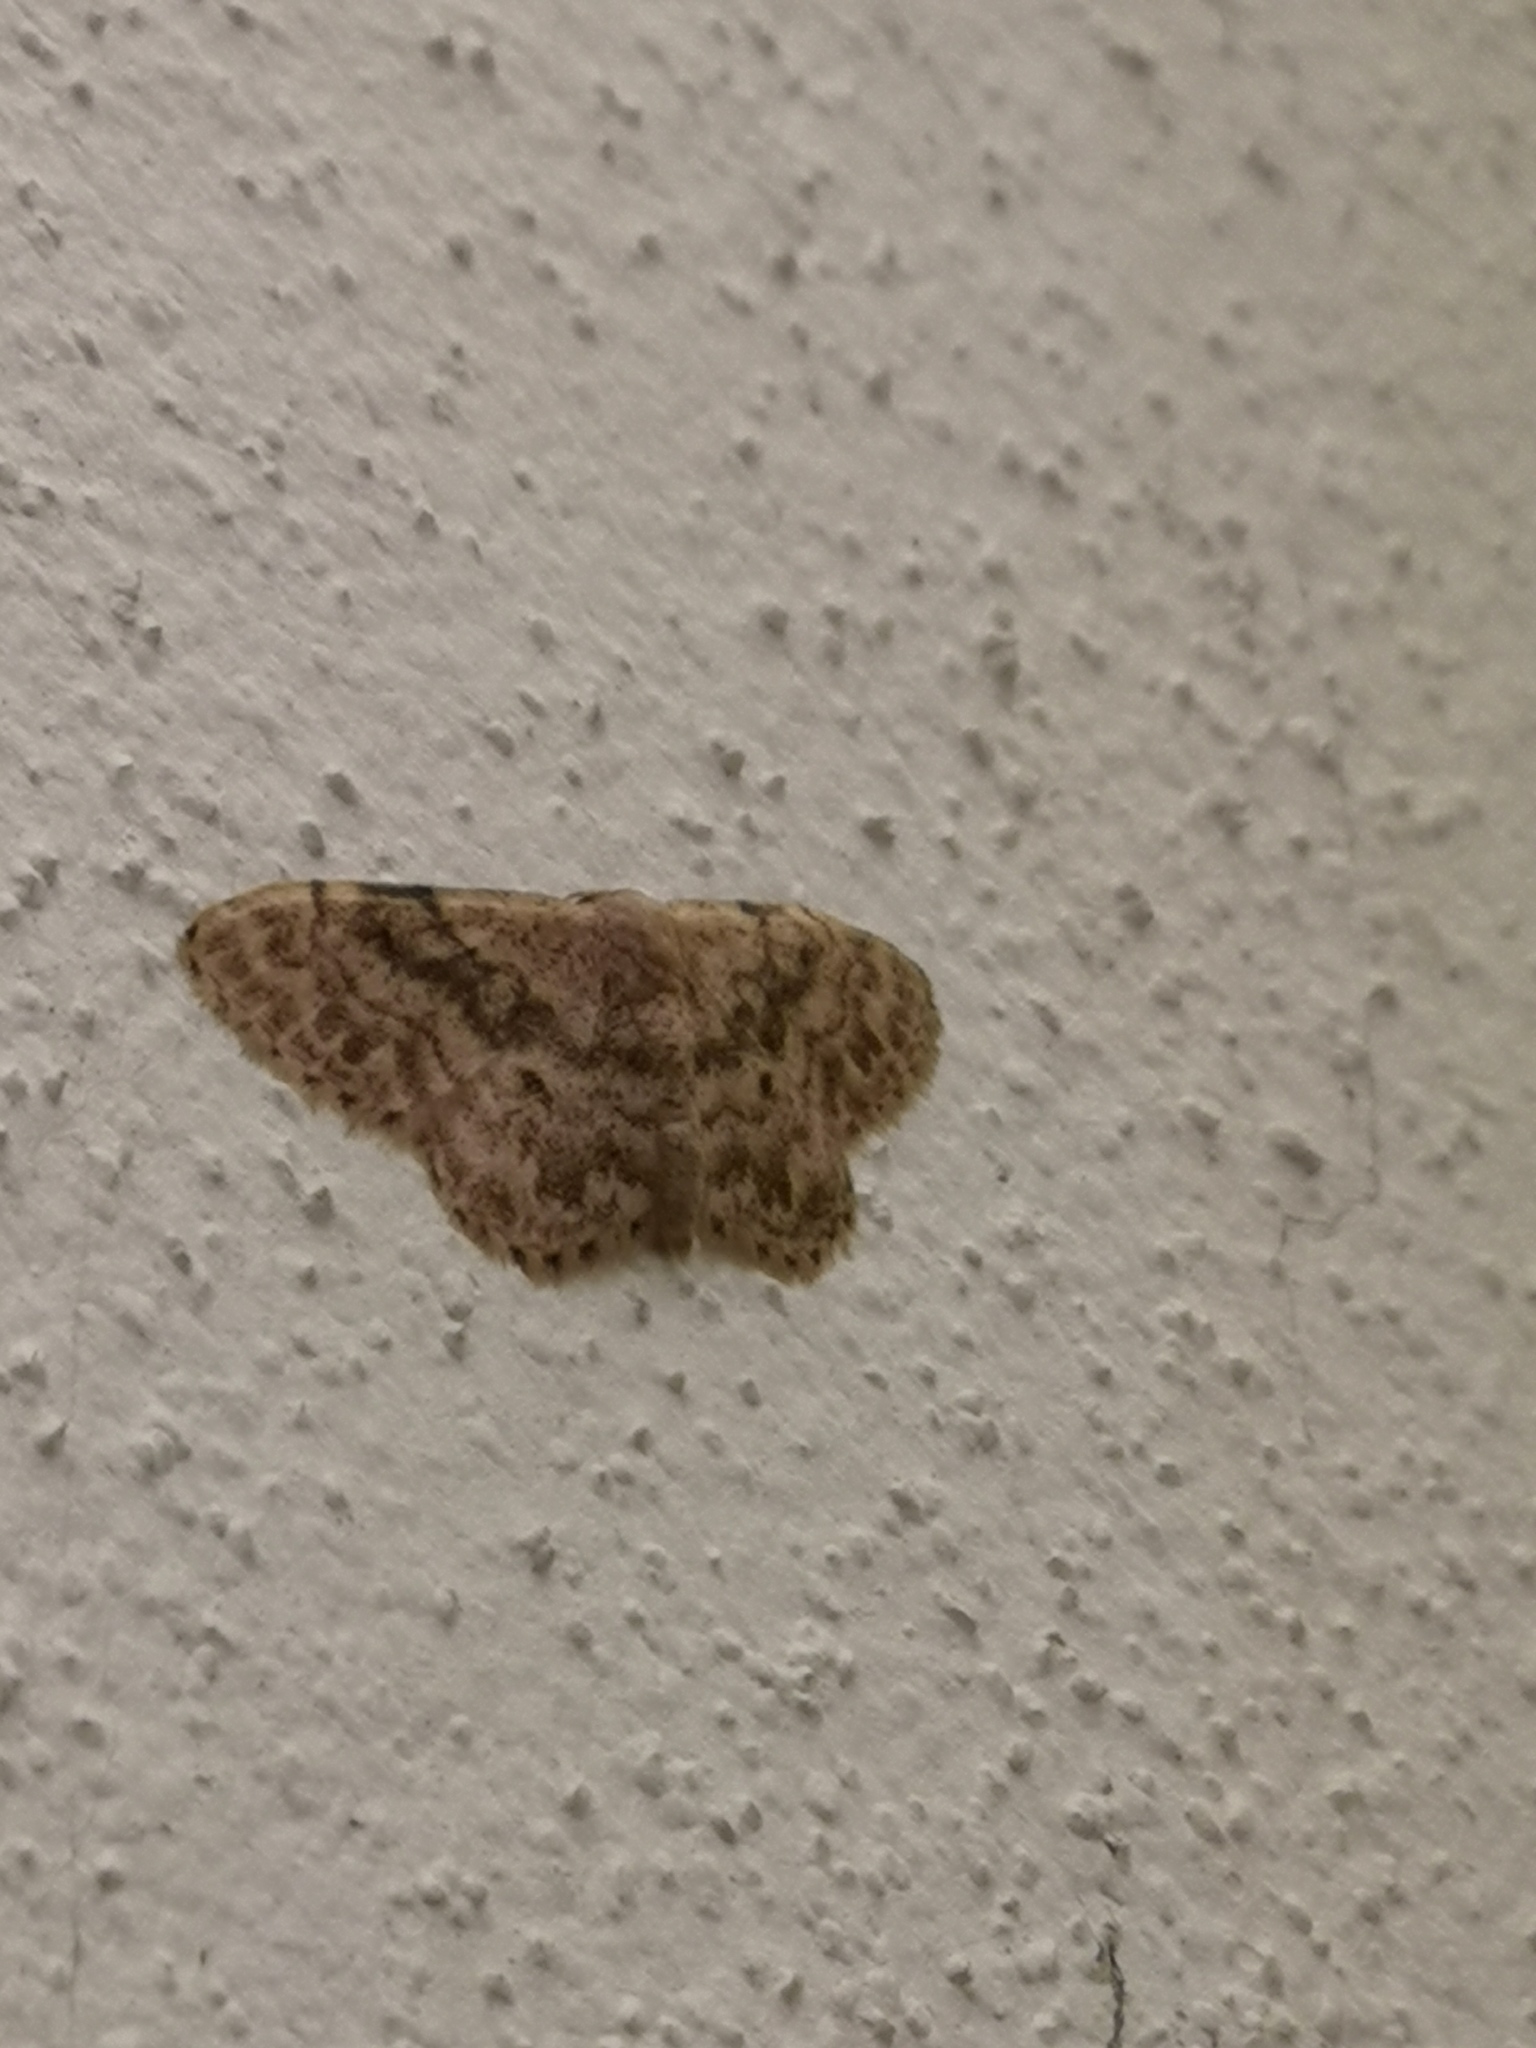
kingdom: Animalia
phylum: Arthropoda
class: Insecta
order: Lepidoptera
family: Geometridae
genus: Idaea
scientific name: Idaea inquinata
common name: Rusty wave
